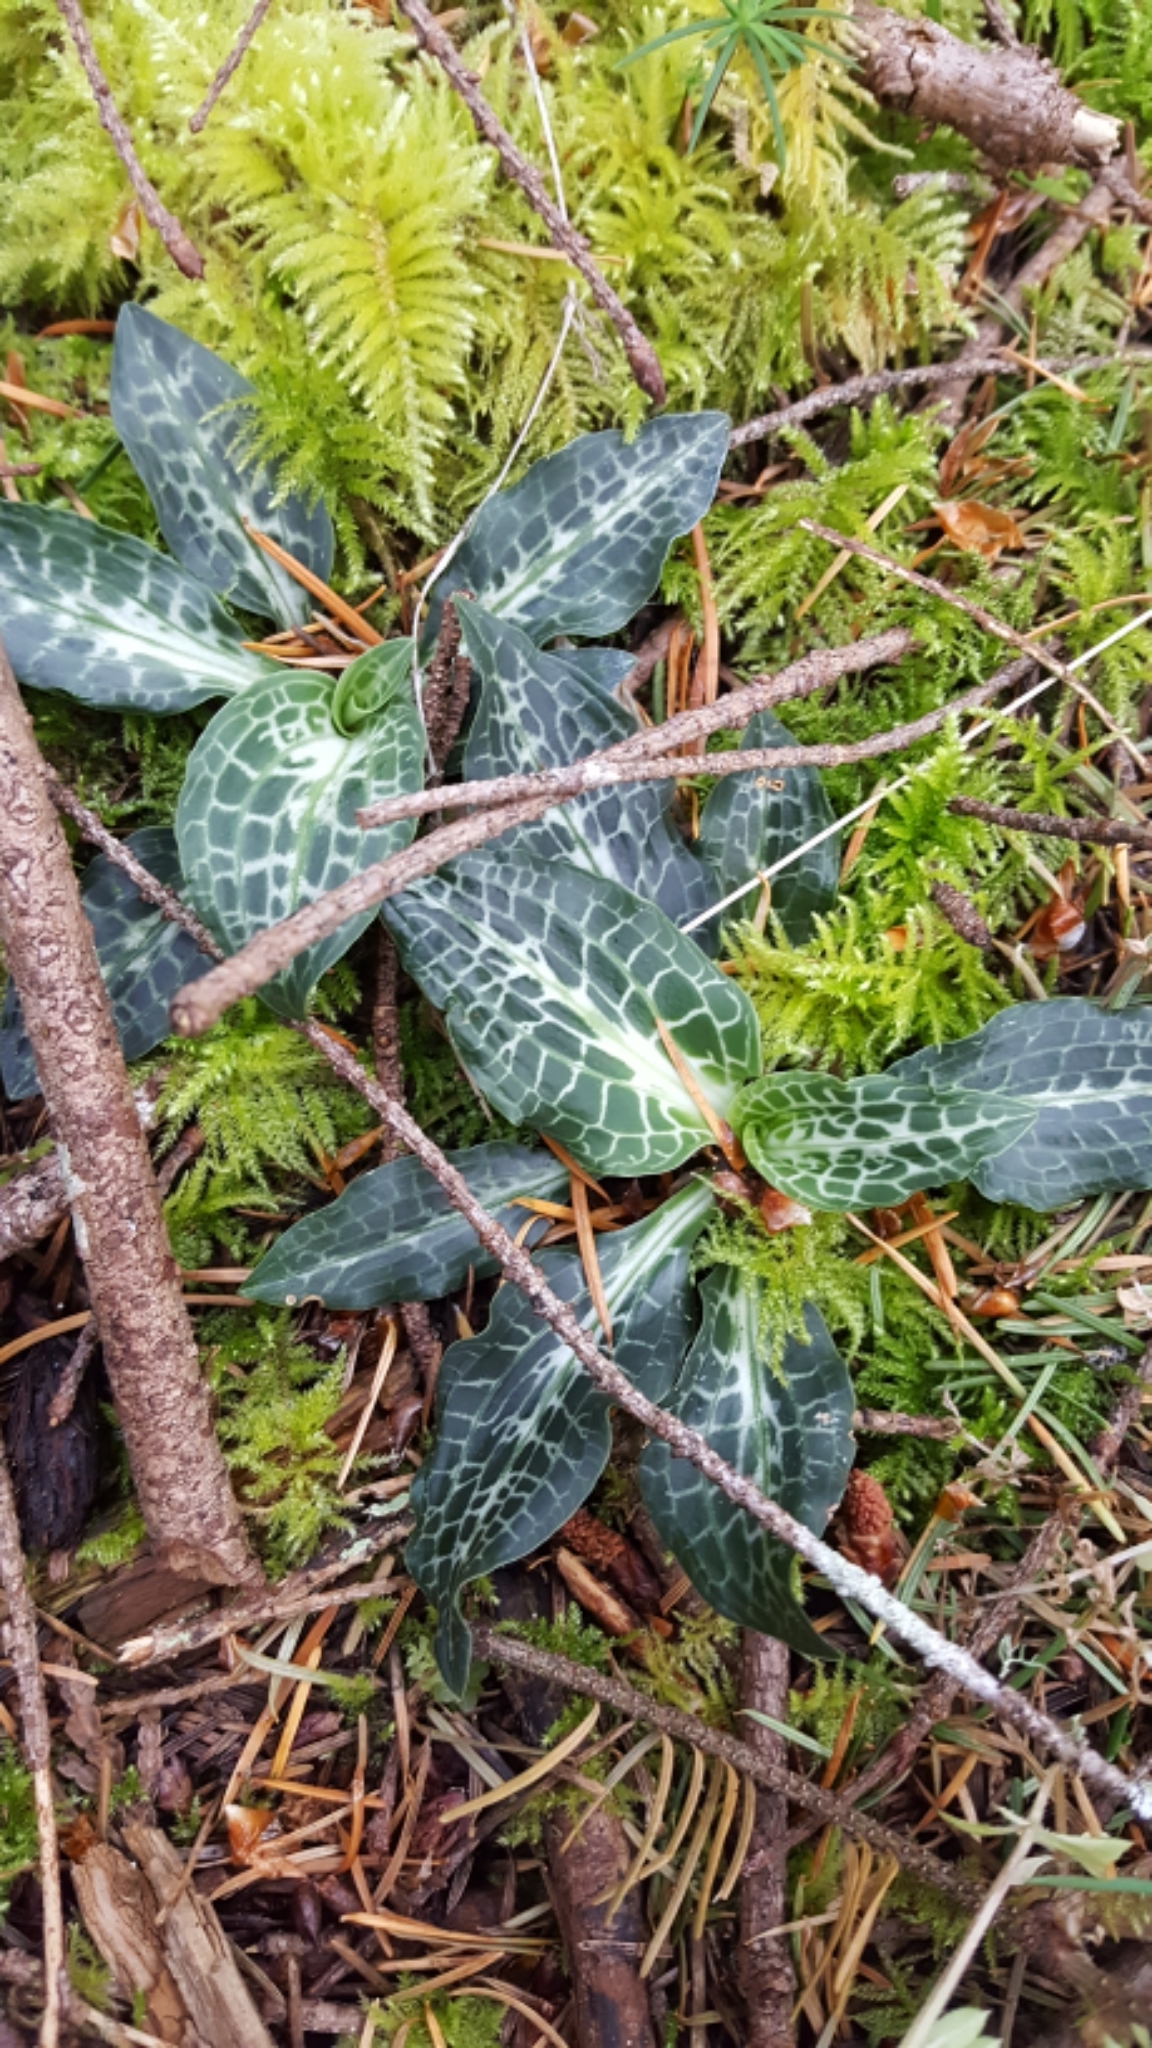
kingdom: Plantae
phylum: Tracheophyta
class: Liliopsida
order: Asparagales
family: Orchidaceae
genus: Goodyera
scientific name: Goodyera oblongifolia
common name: Giant rattlesnake-plantain
